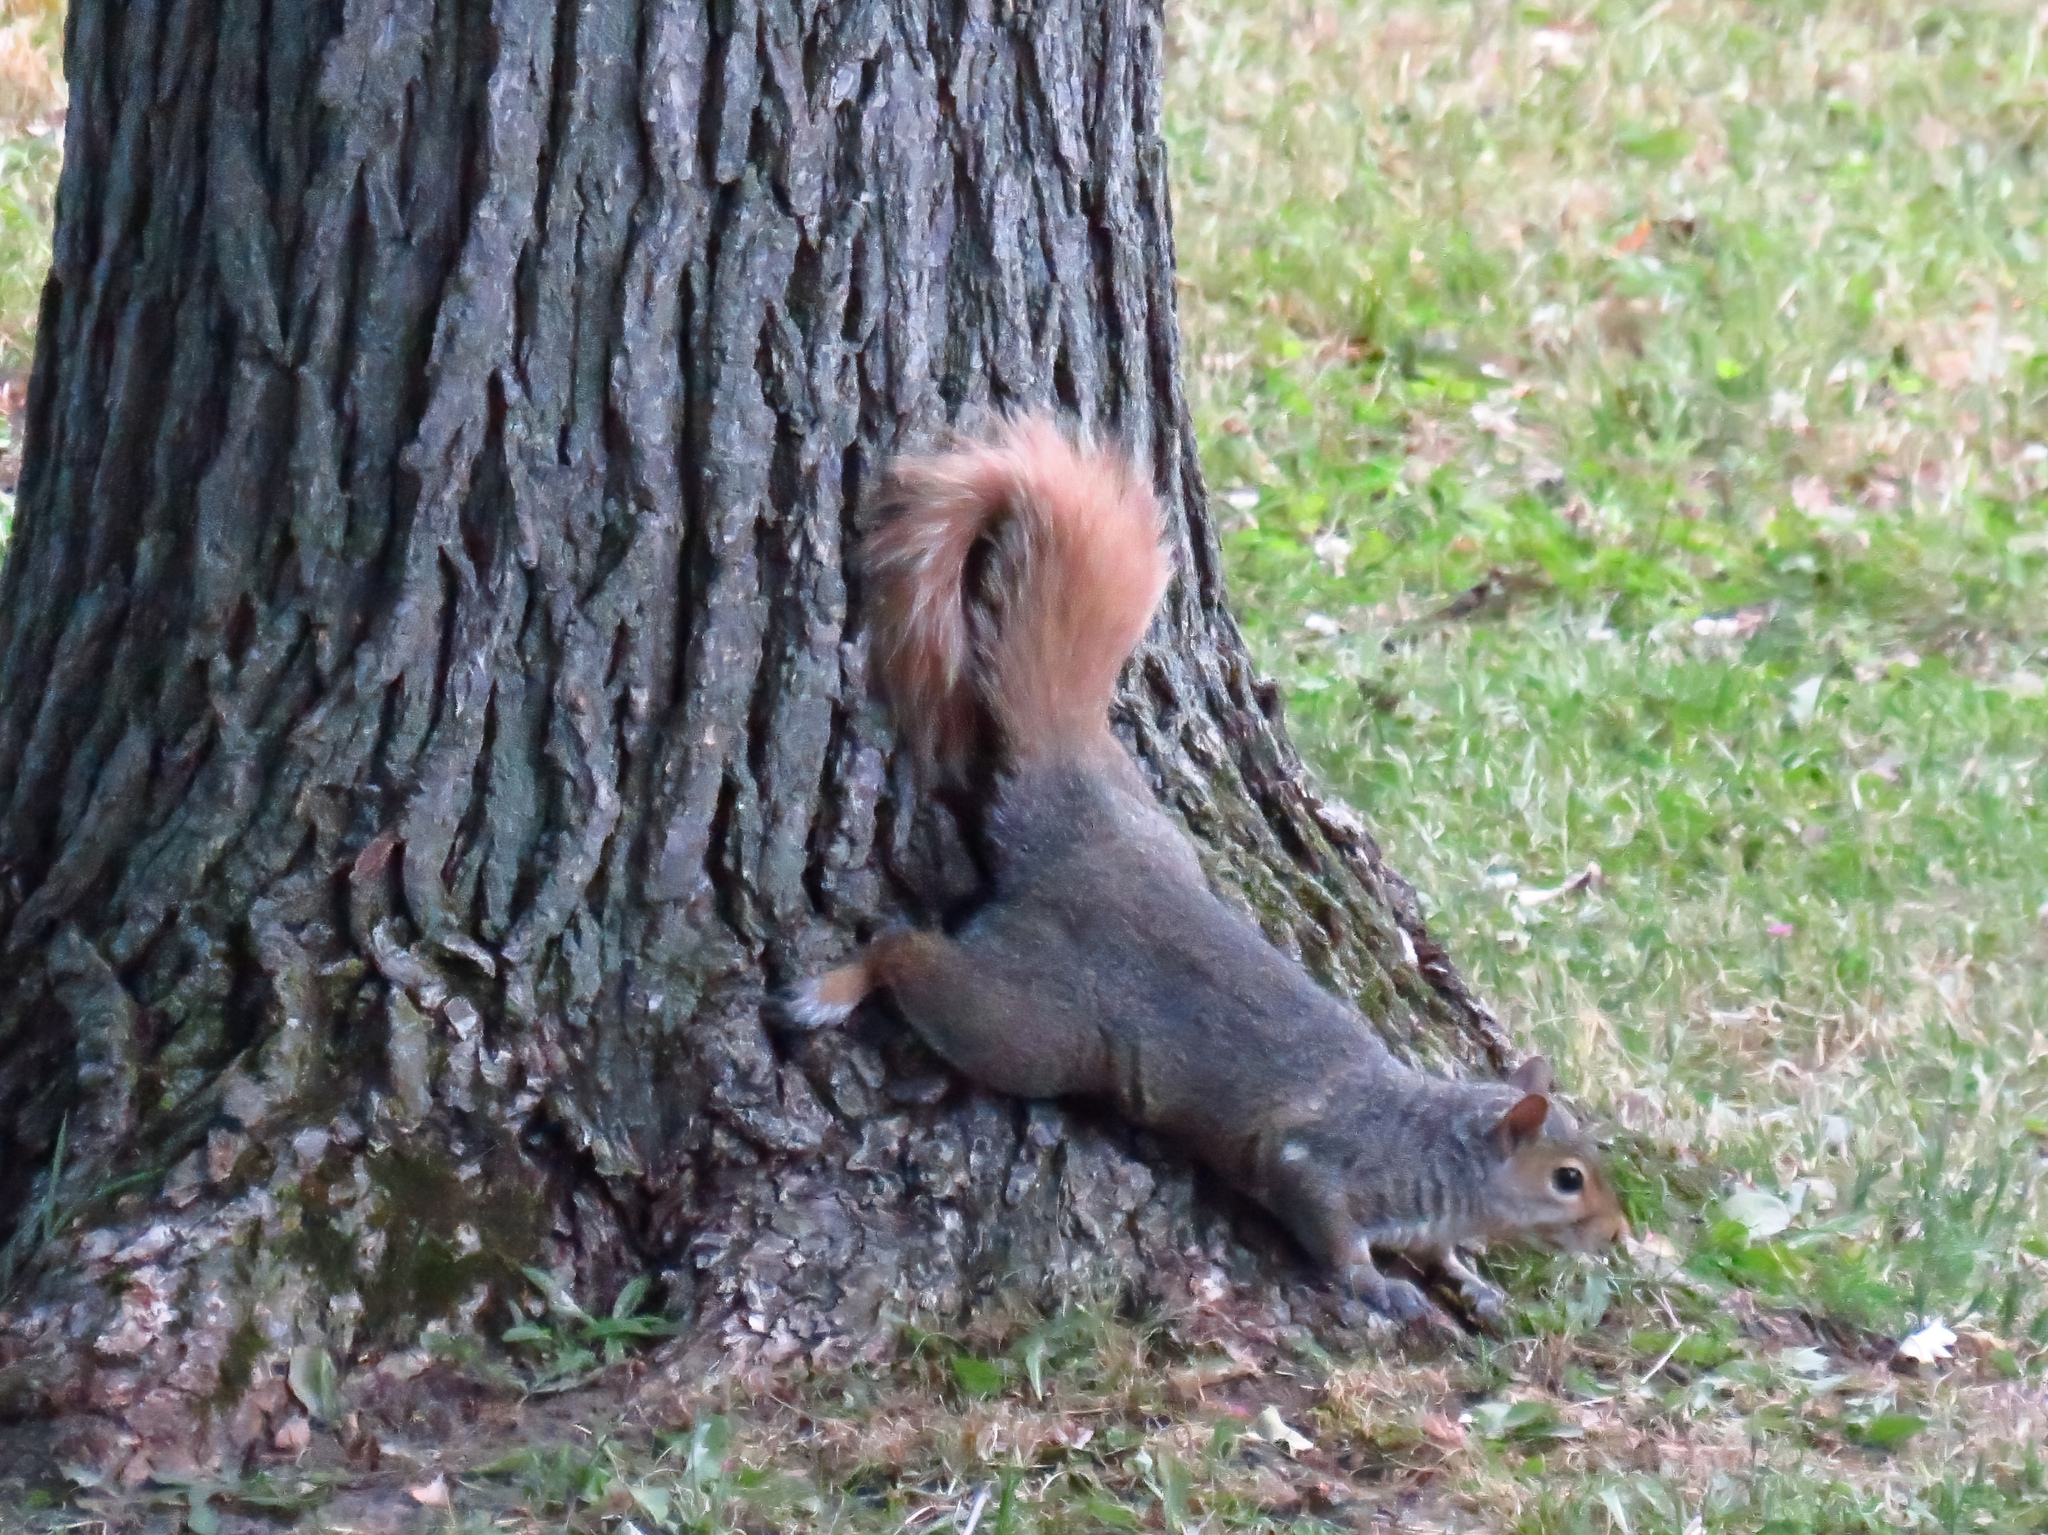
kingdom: Animalia
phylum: Chordata
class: Mammalia
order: Rodentia
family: Sciuridae
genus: Sciurus
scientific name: Sciurus carolinensis
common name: Eastern gray squirrel
